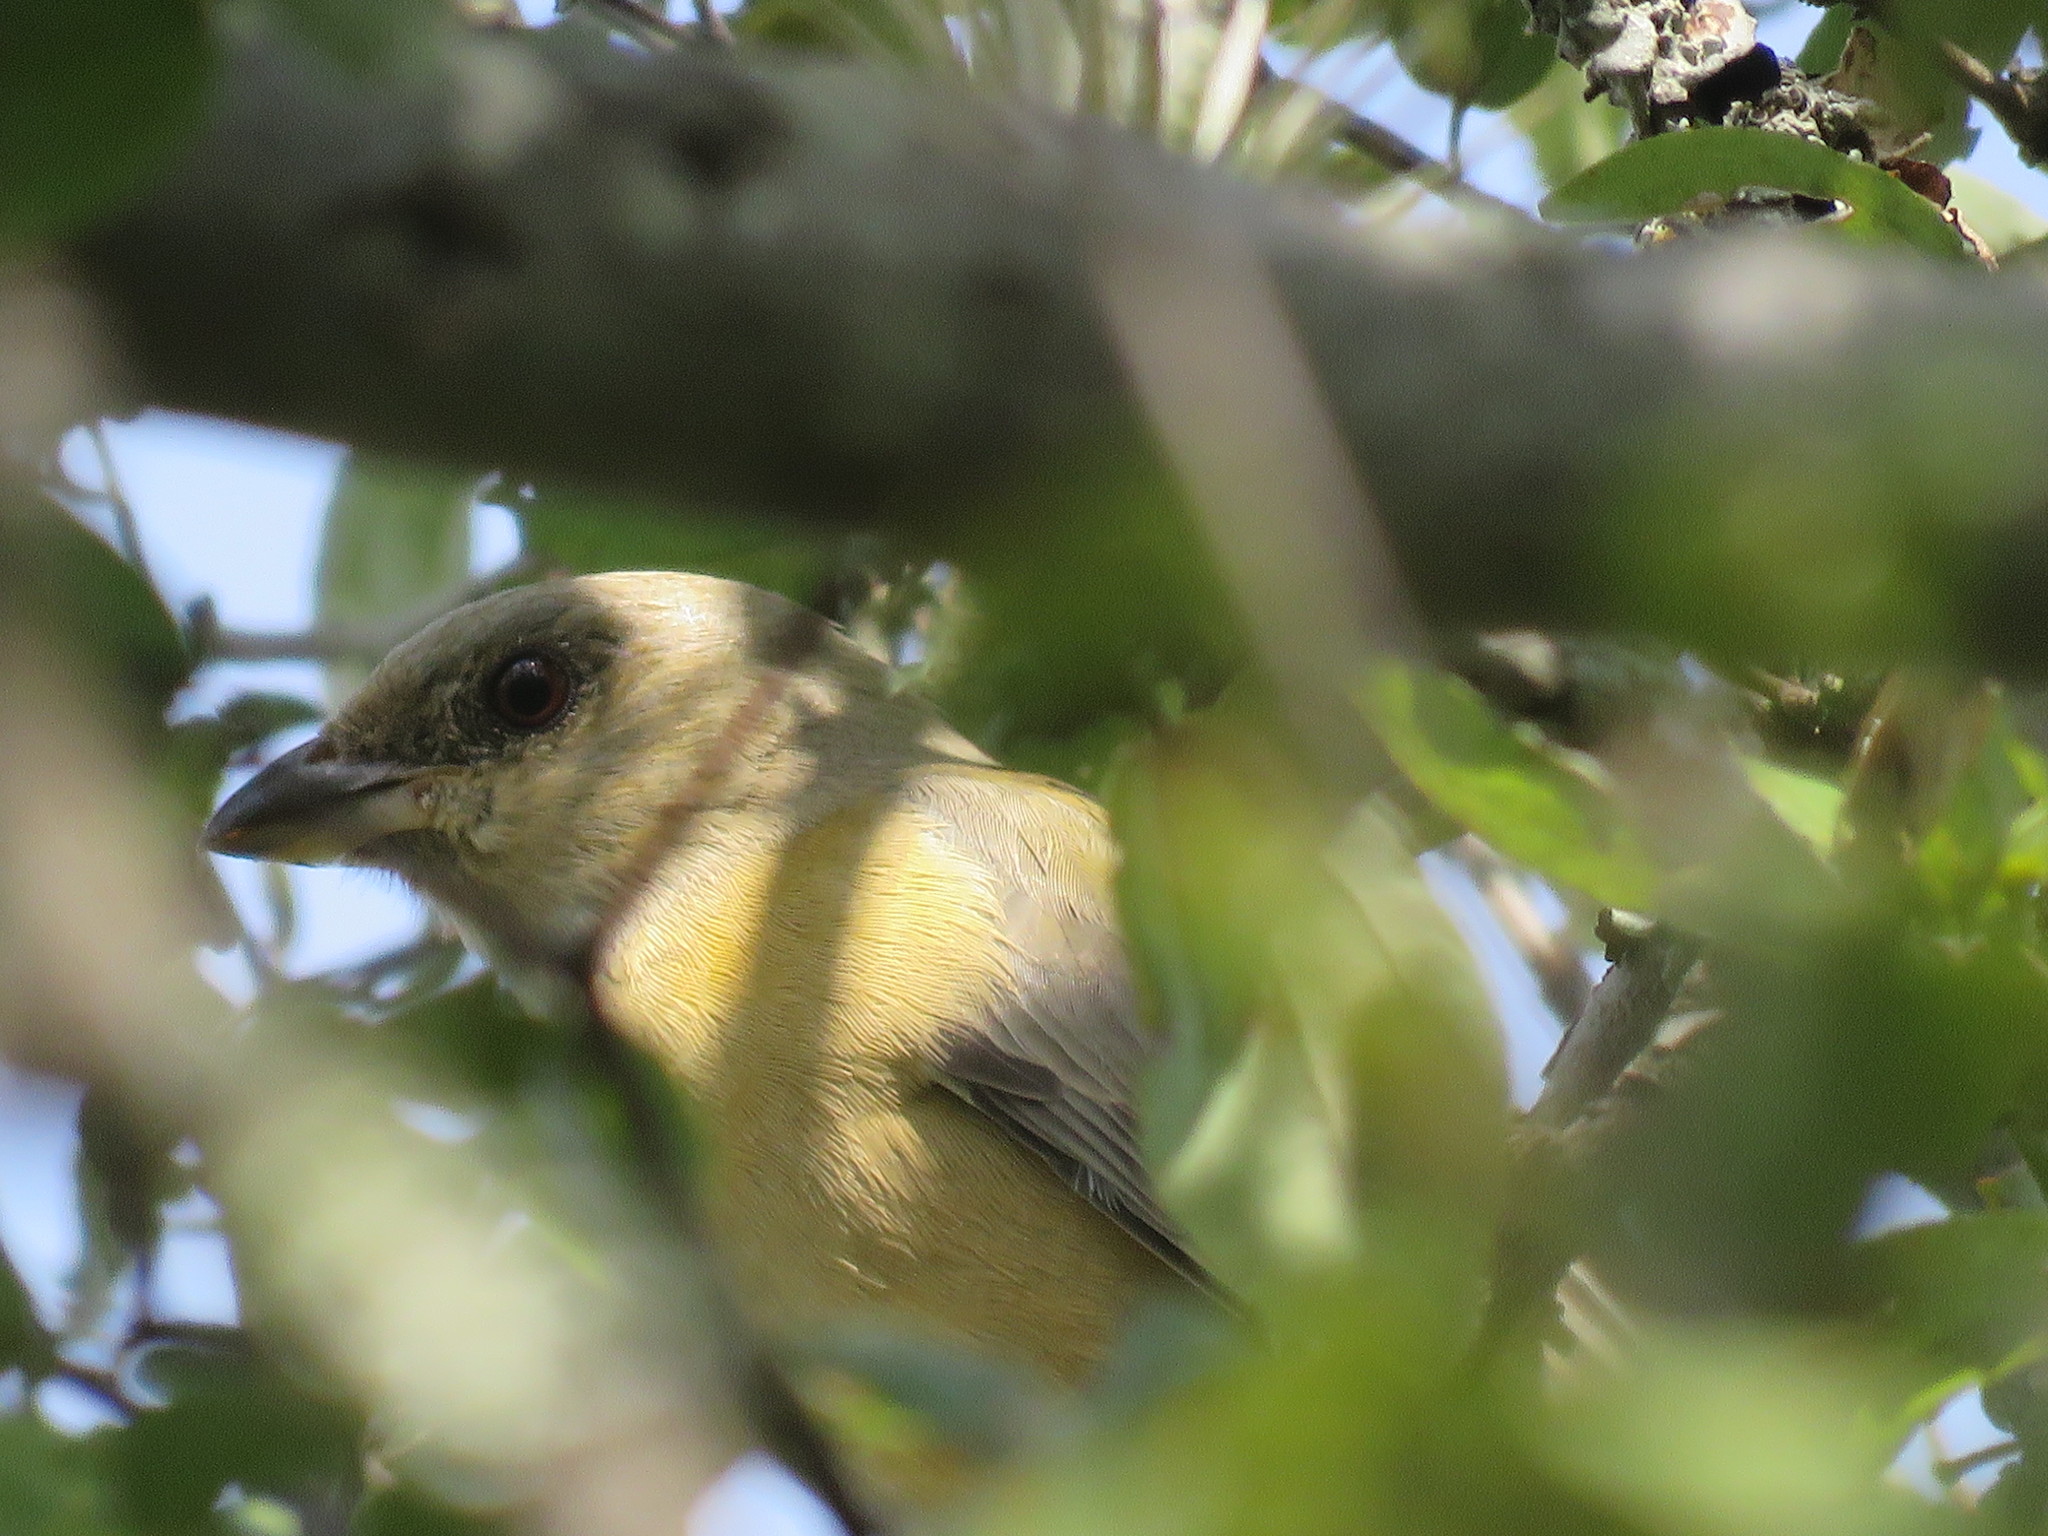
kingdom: Animalia
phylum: Chordata
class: Aves
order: Passeriformes
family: Thraupidae
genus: Rauenia
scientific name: Rauenia bonariensis
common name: Blue-and-yellow tanager
